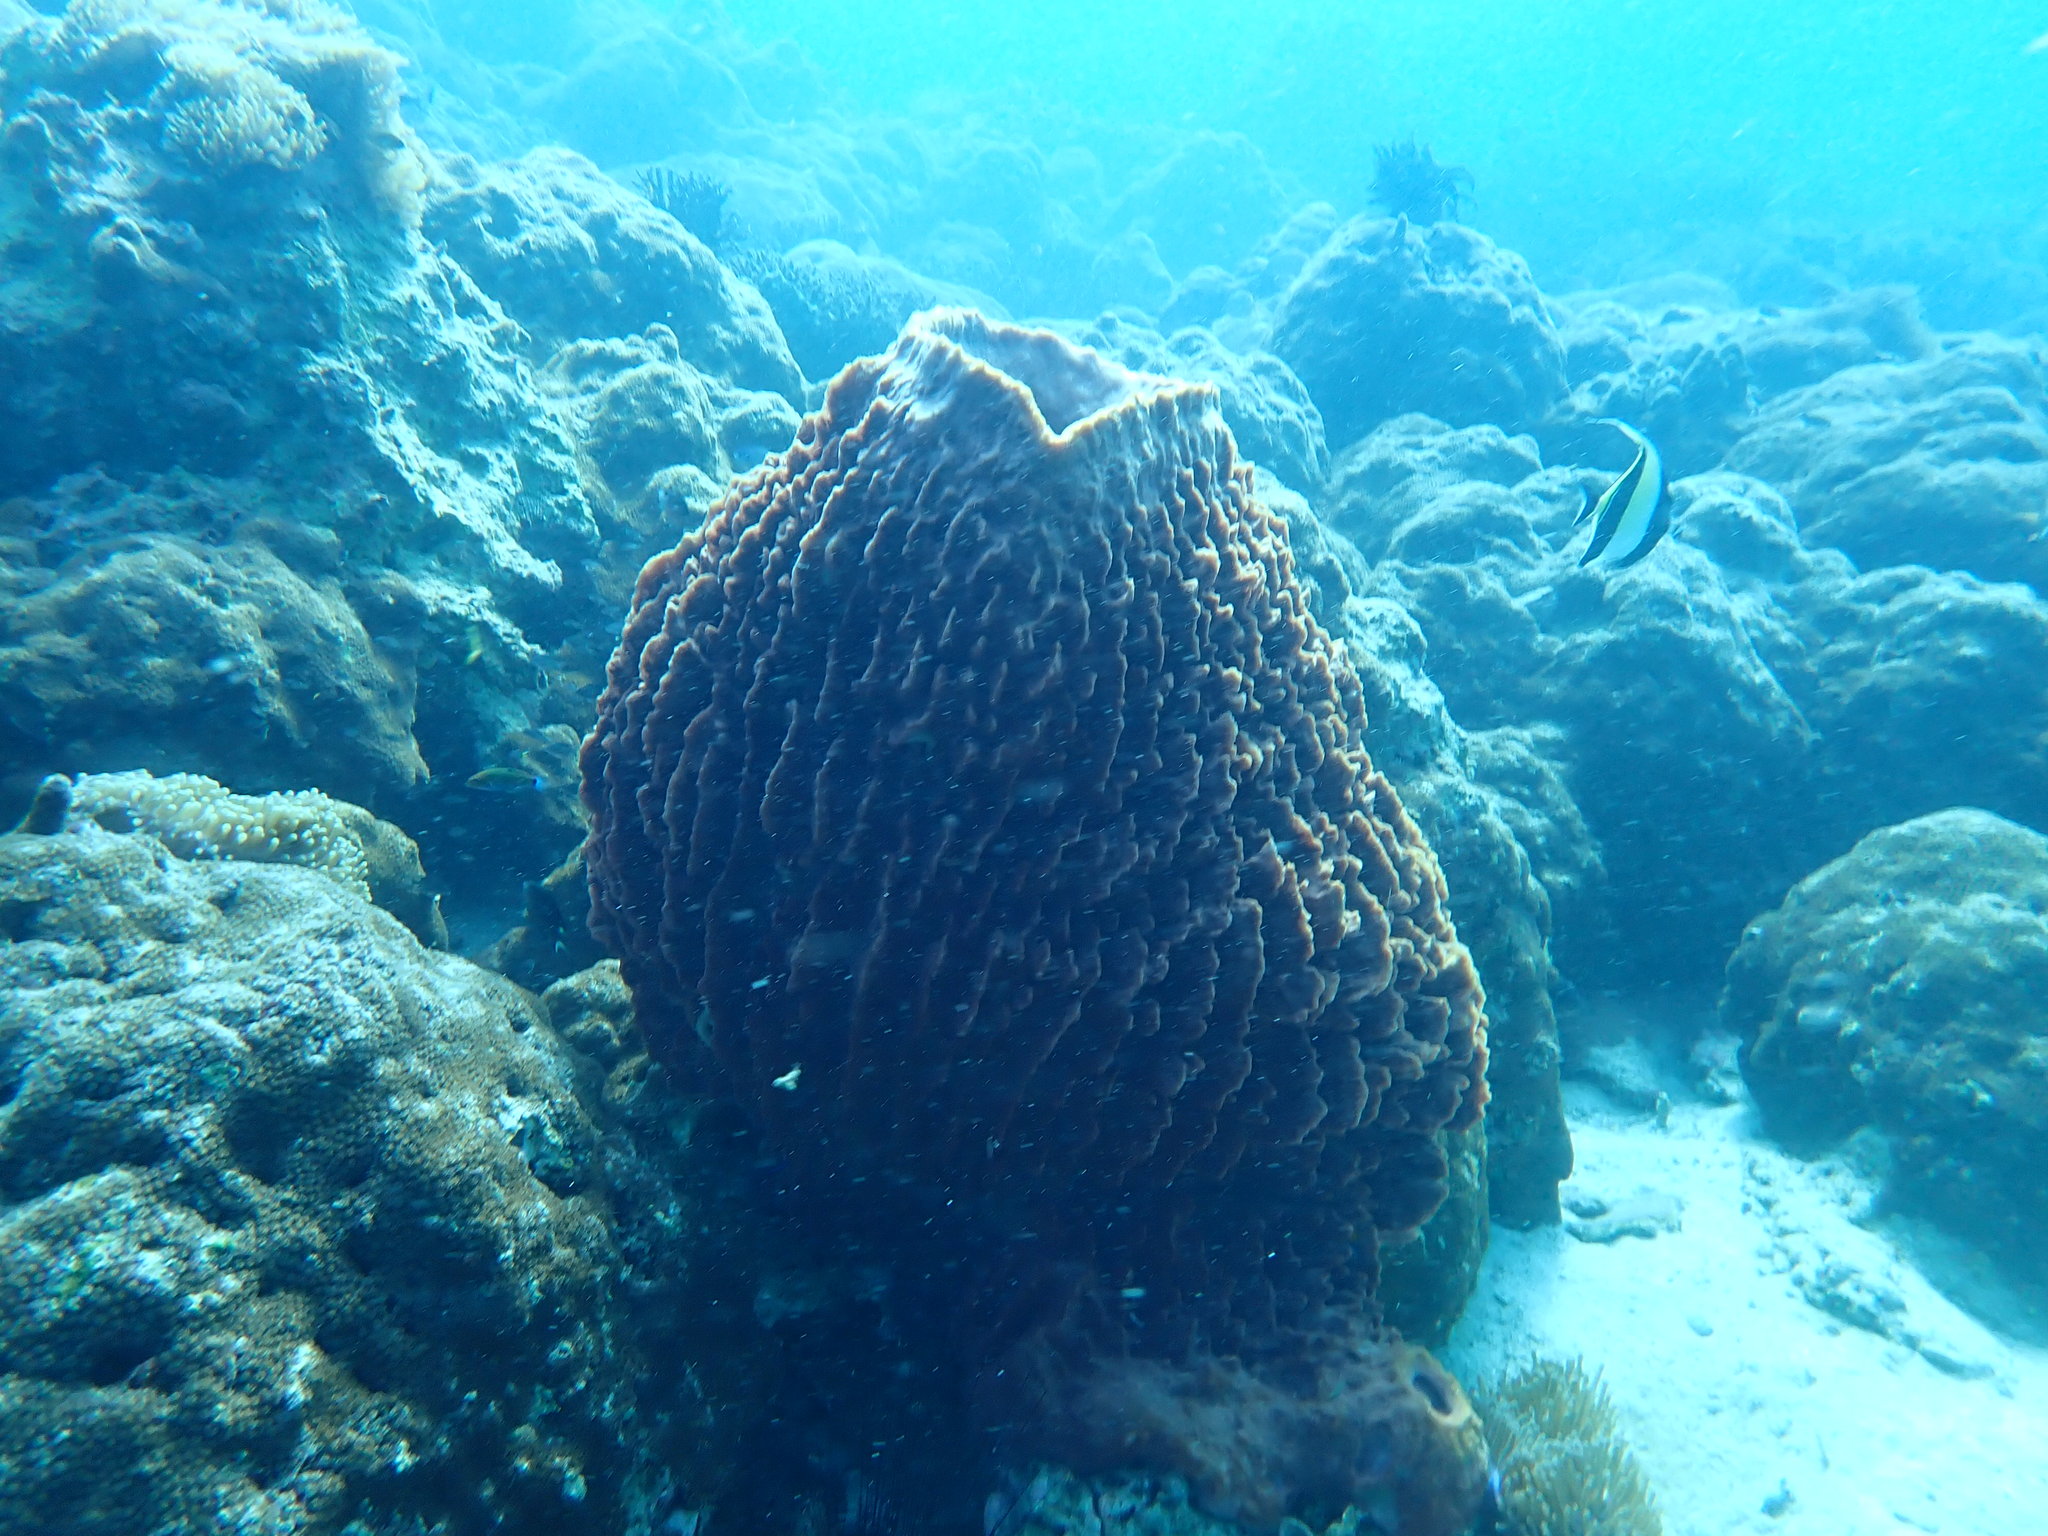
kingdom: Animalia
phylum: Porifera
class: Demospongiae
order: Haplosclerida
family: Petrosiidae
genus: Xestospongia
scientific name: Xestospongia testudinaria
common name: Barrel sponge
